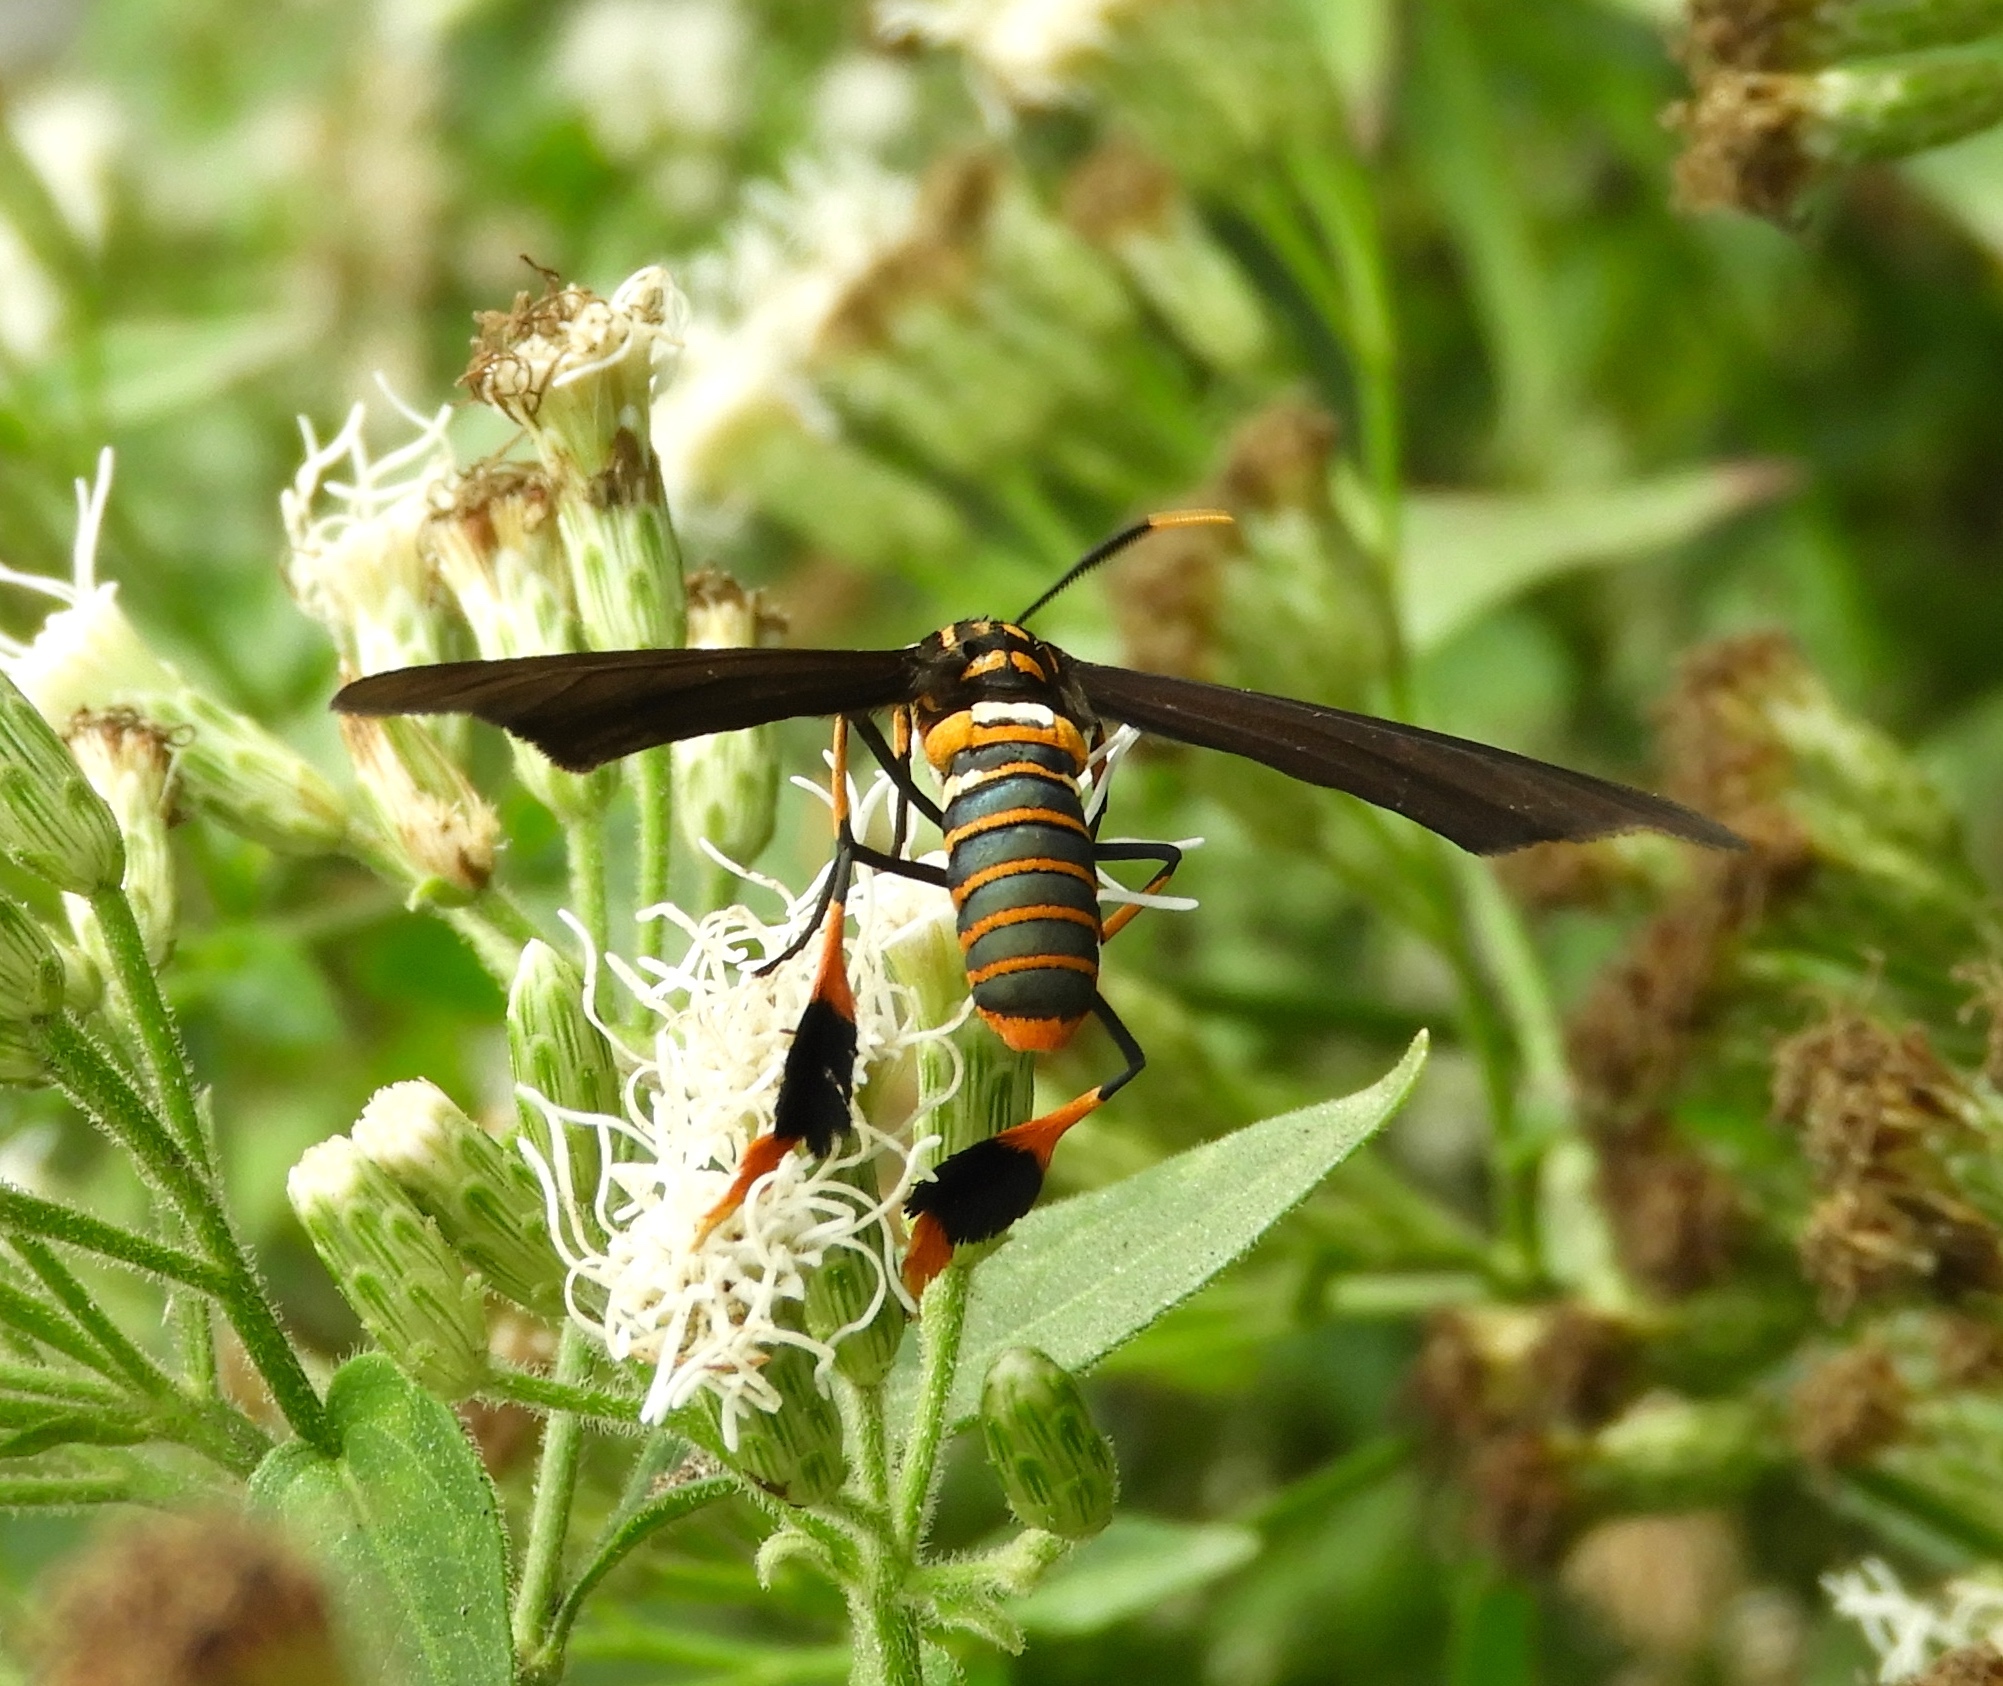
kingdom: Animalia
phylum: Arthropoda
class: Insecta
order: Lepidoptera
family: Erebidae
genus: Horama
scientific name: Horama panthalon
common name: Texas wasp moth
